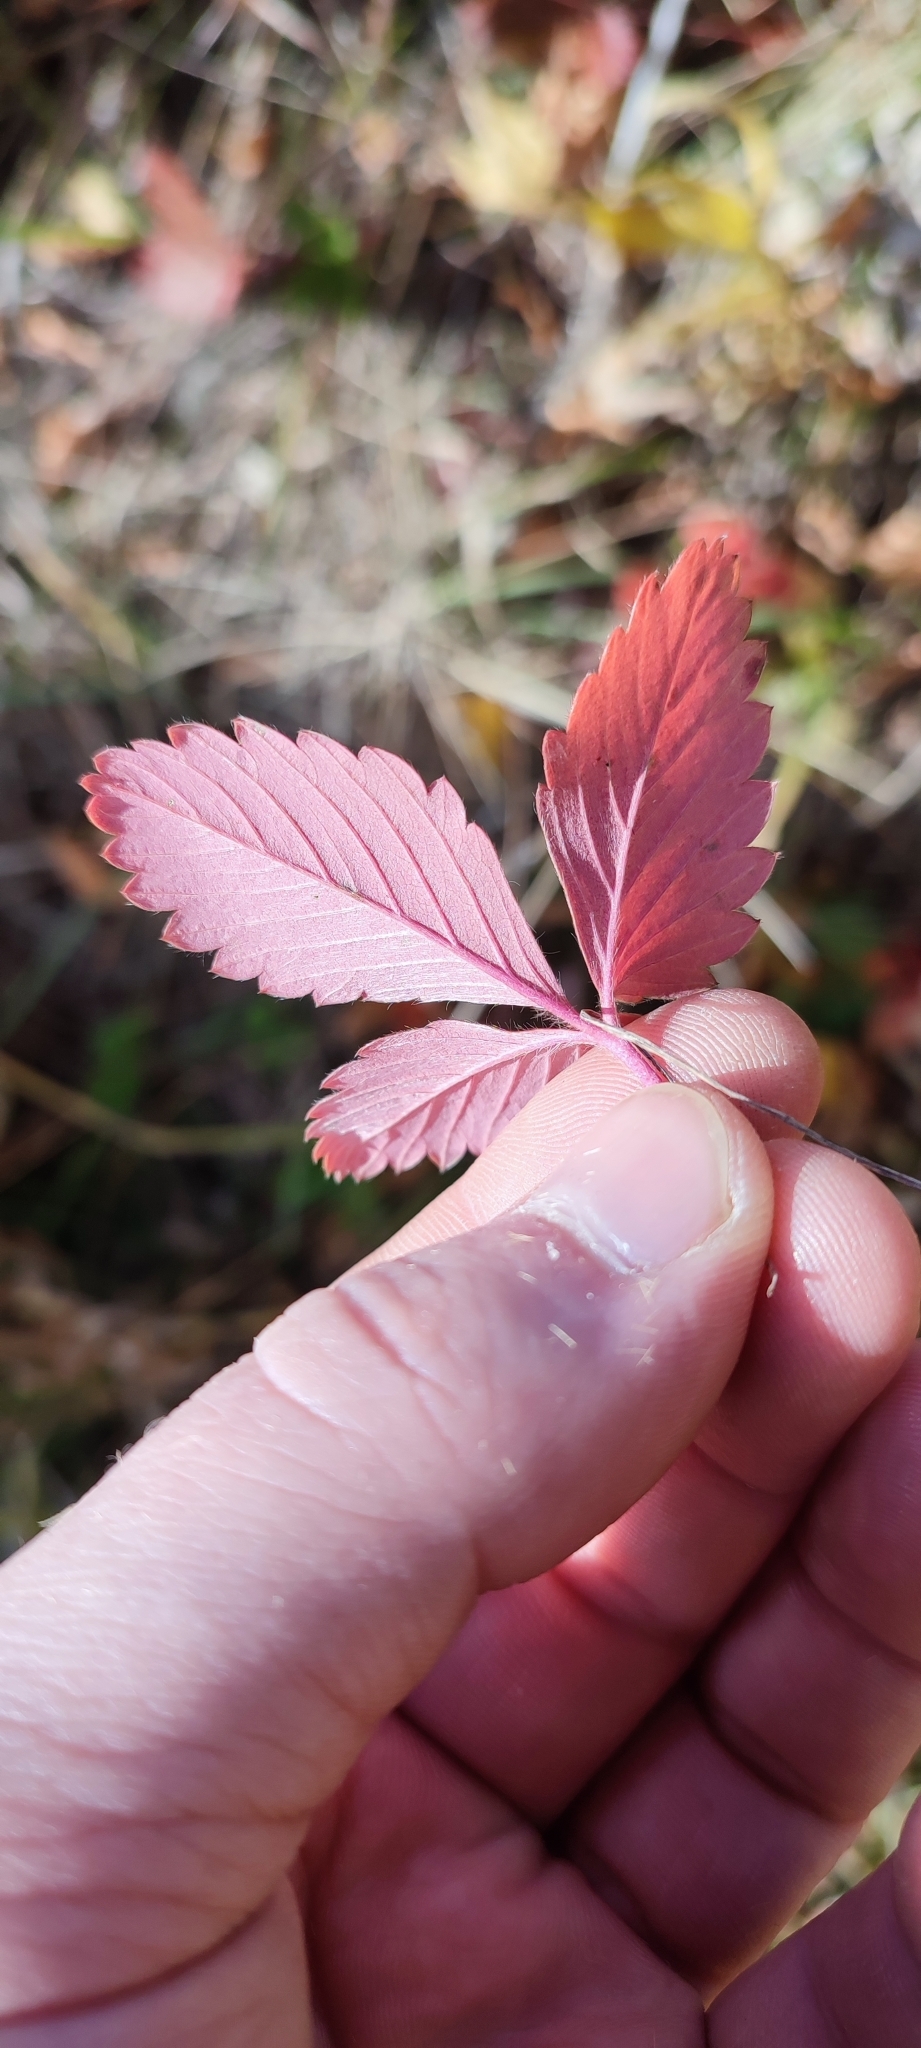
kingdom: Plantae
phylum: Tracheophyta
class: Magnoliopsida
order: Rosales
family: Rosaceae
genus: Fragaria
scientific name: Fragaria viridis
